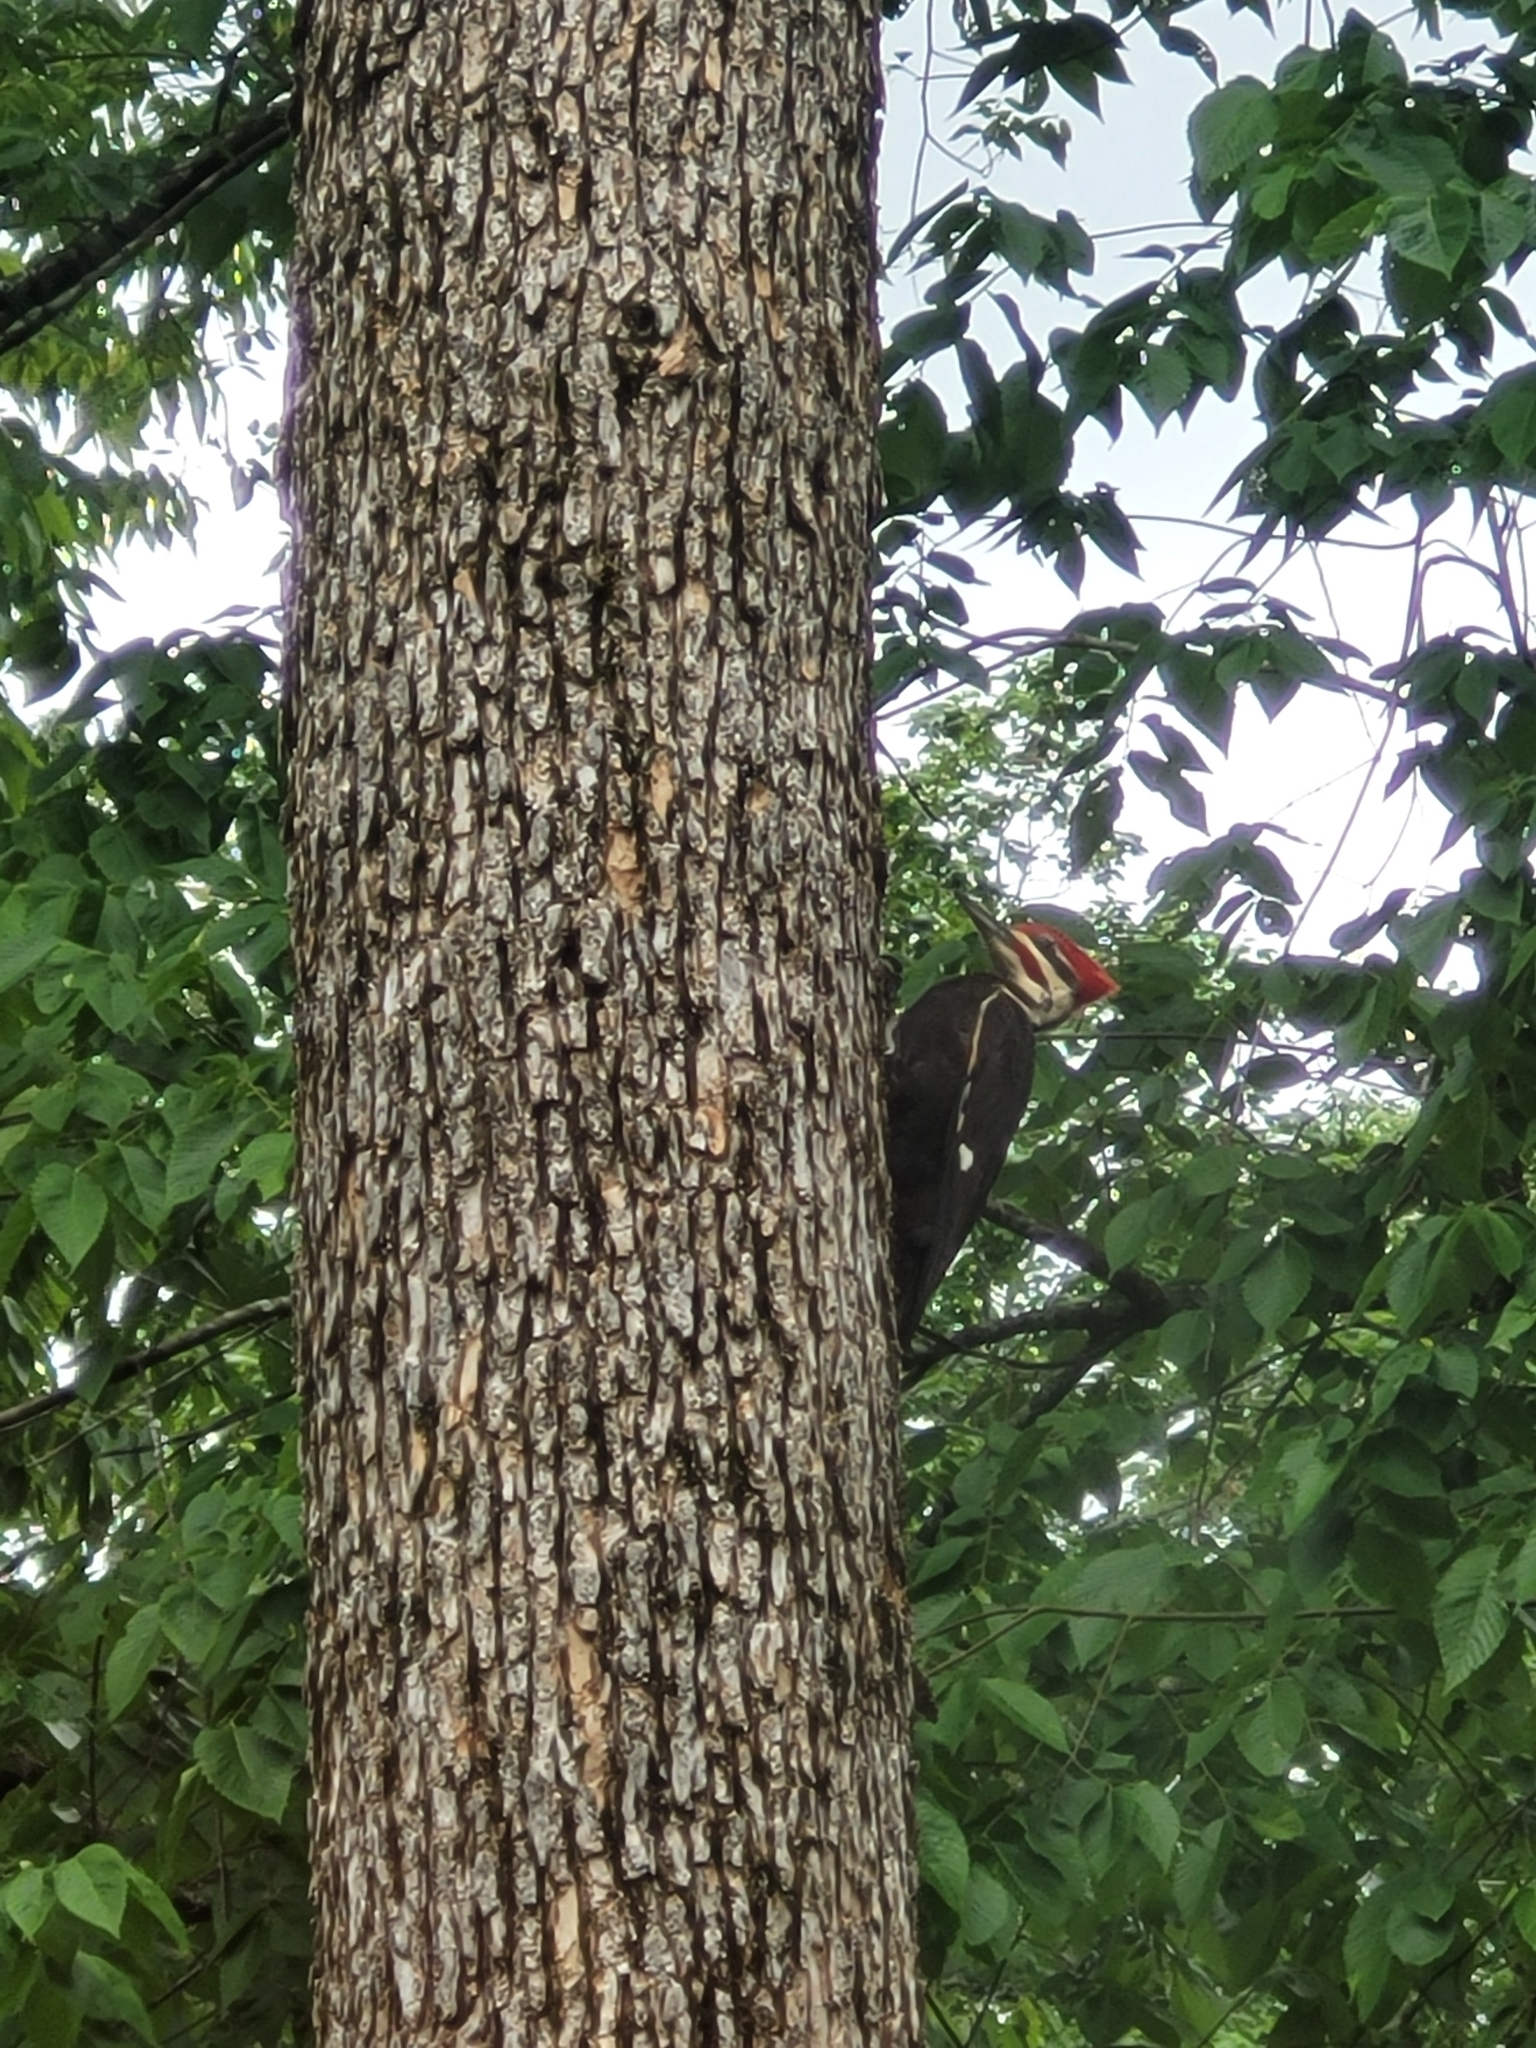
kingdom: Animalia
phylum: Chordata
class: Aves
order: Piciformes
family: Picidae
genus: Dryocopus
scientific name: Dryocopus pileatus
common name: Pileated woodpecker
